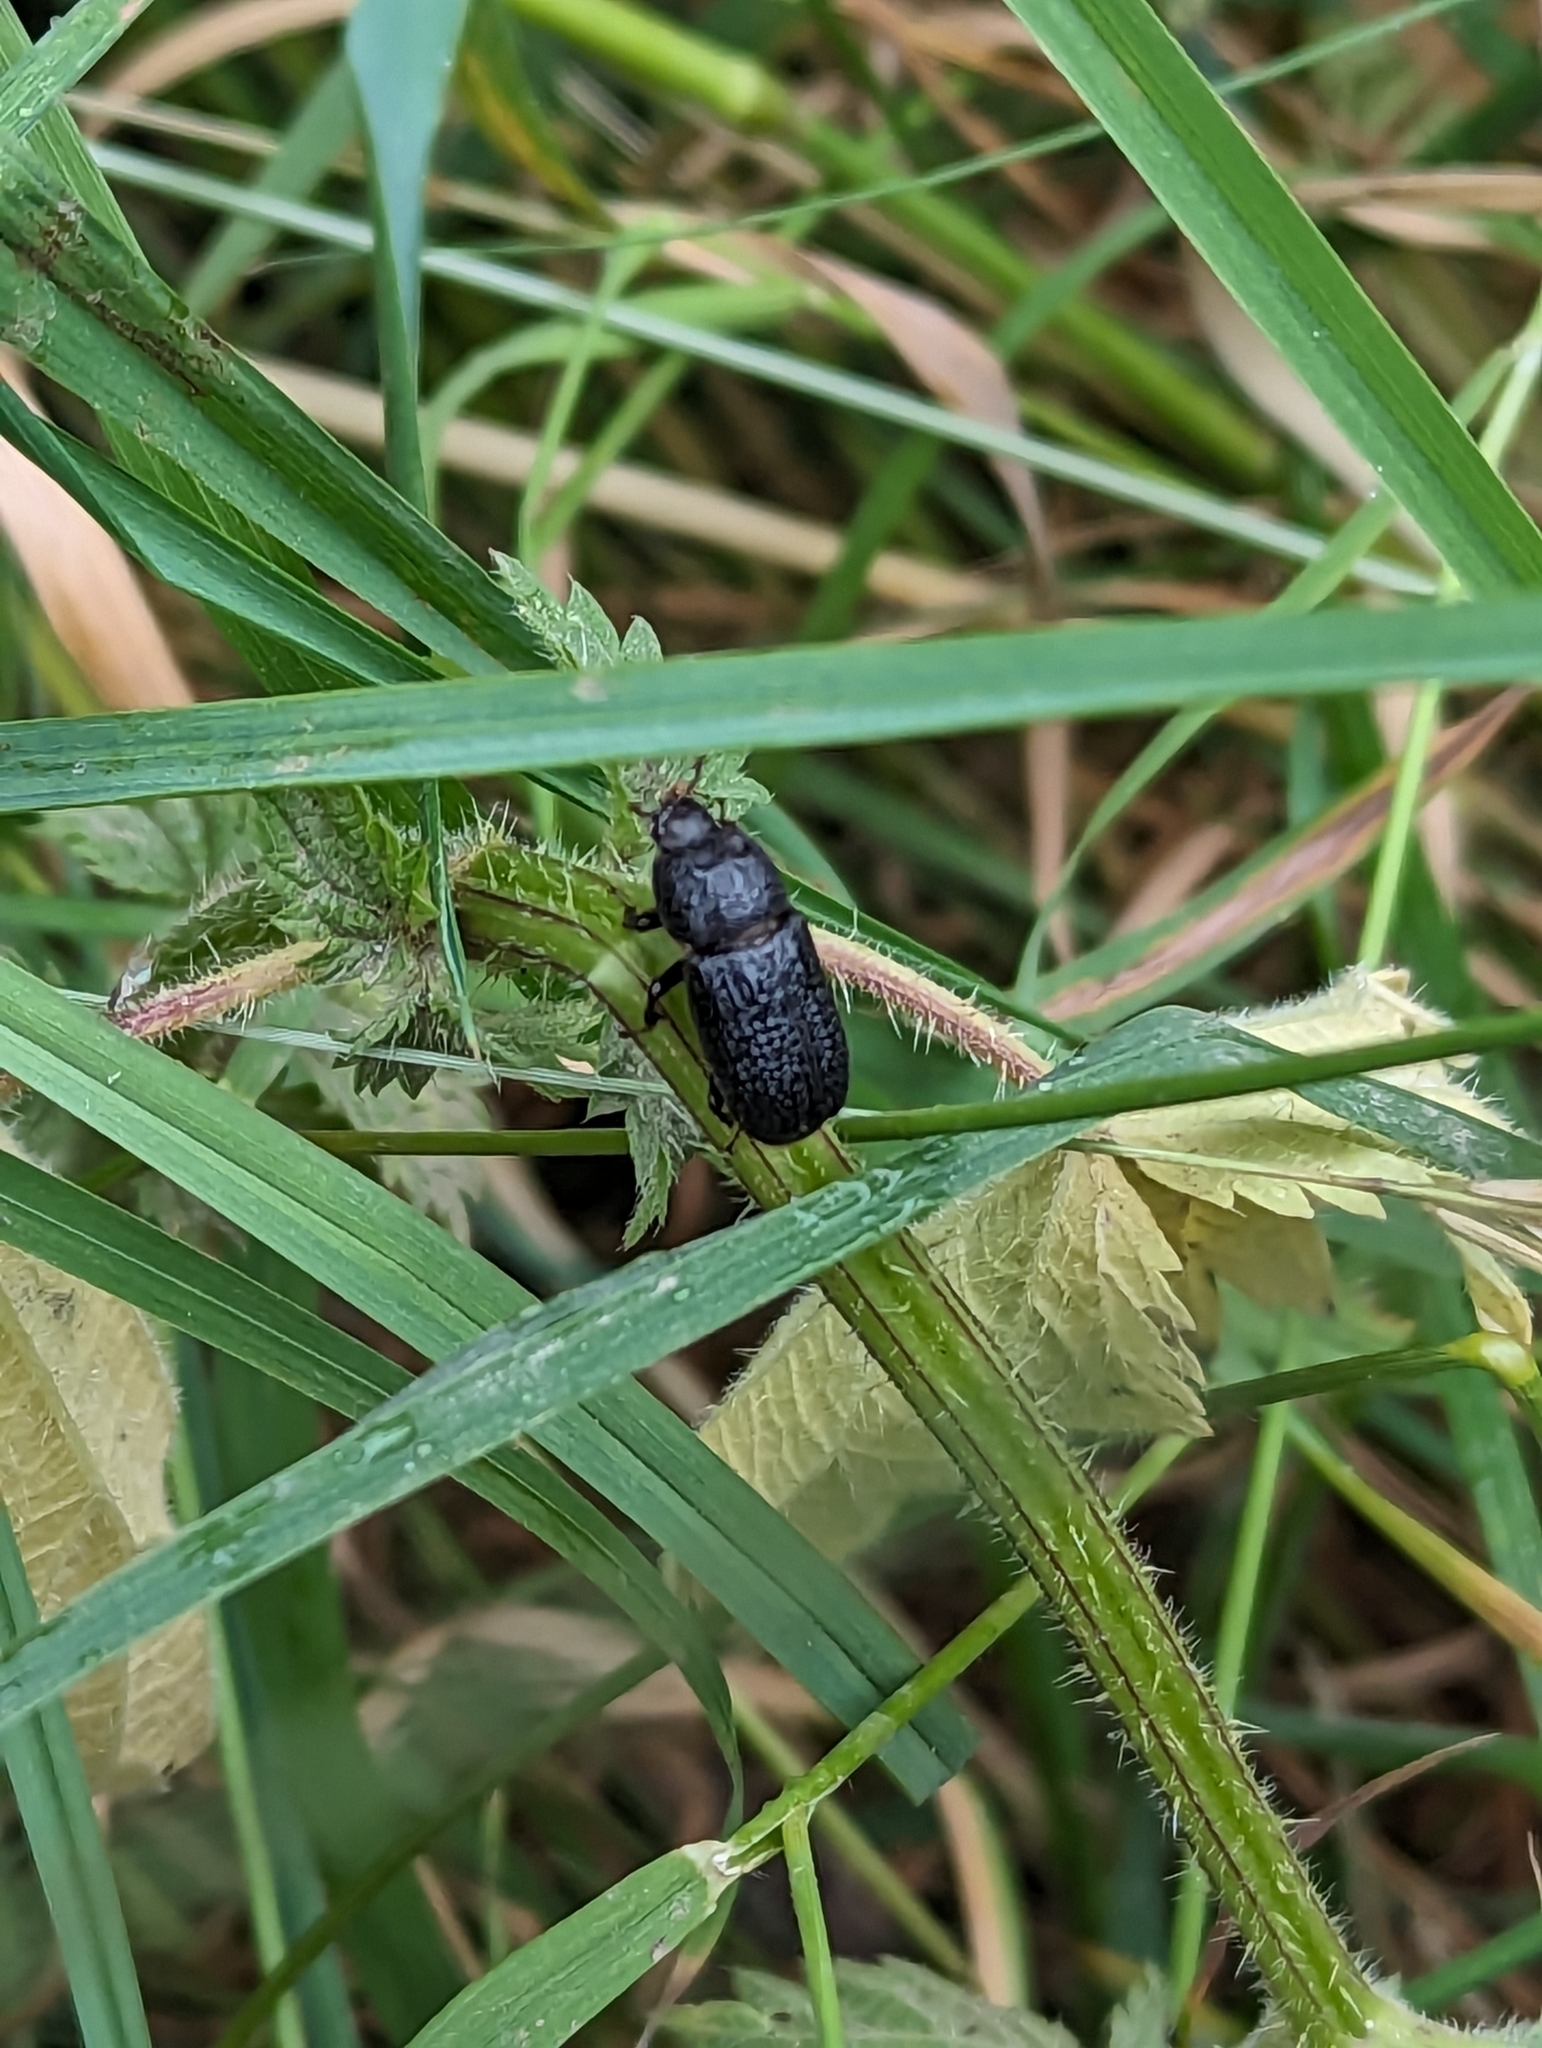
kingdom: Animalia
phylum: Arthropoda
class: Insecta
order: Coleoptera
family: Lucanidae
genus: Sinodendron
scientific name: Sinodendron cylindricum
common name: Rhinoceros beetle
